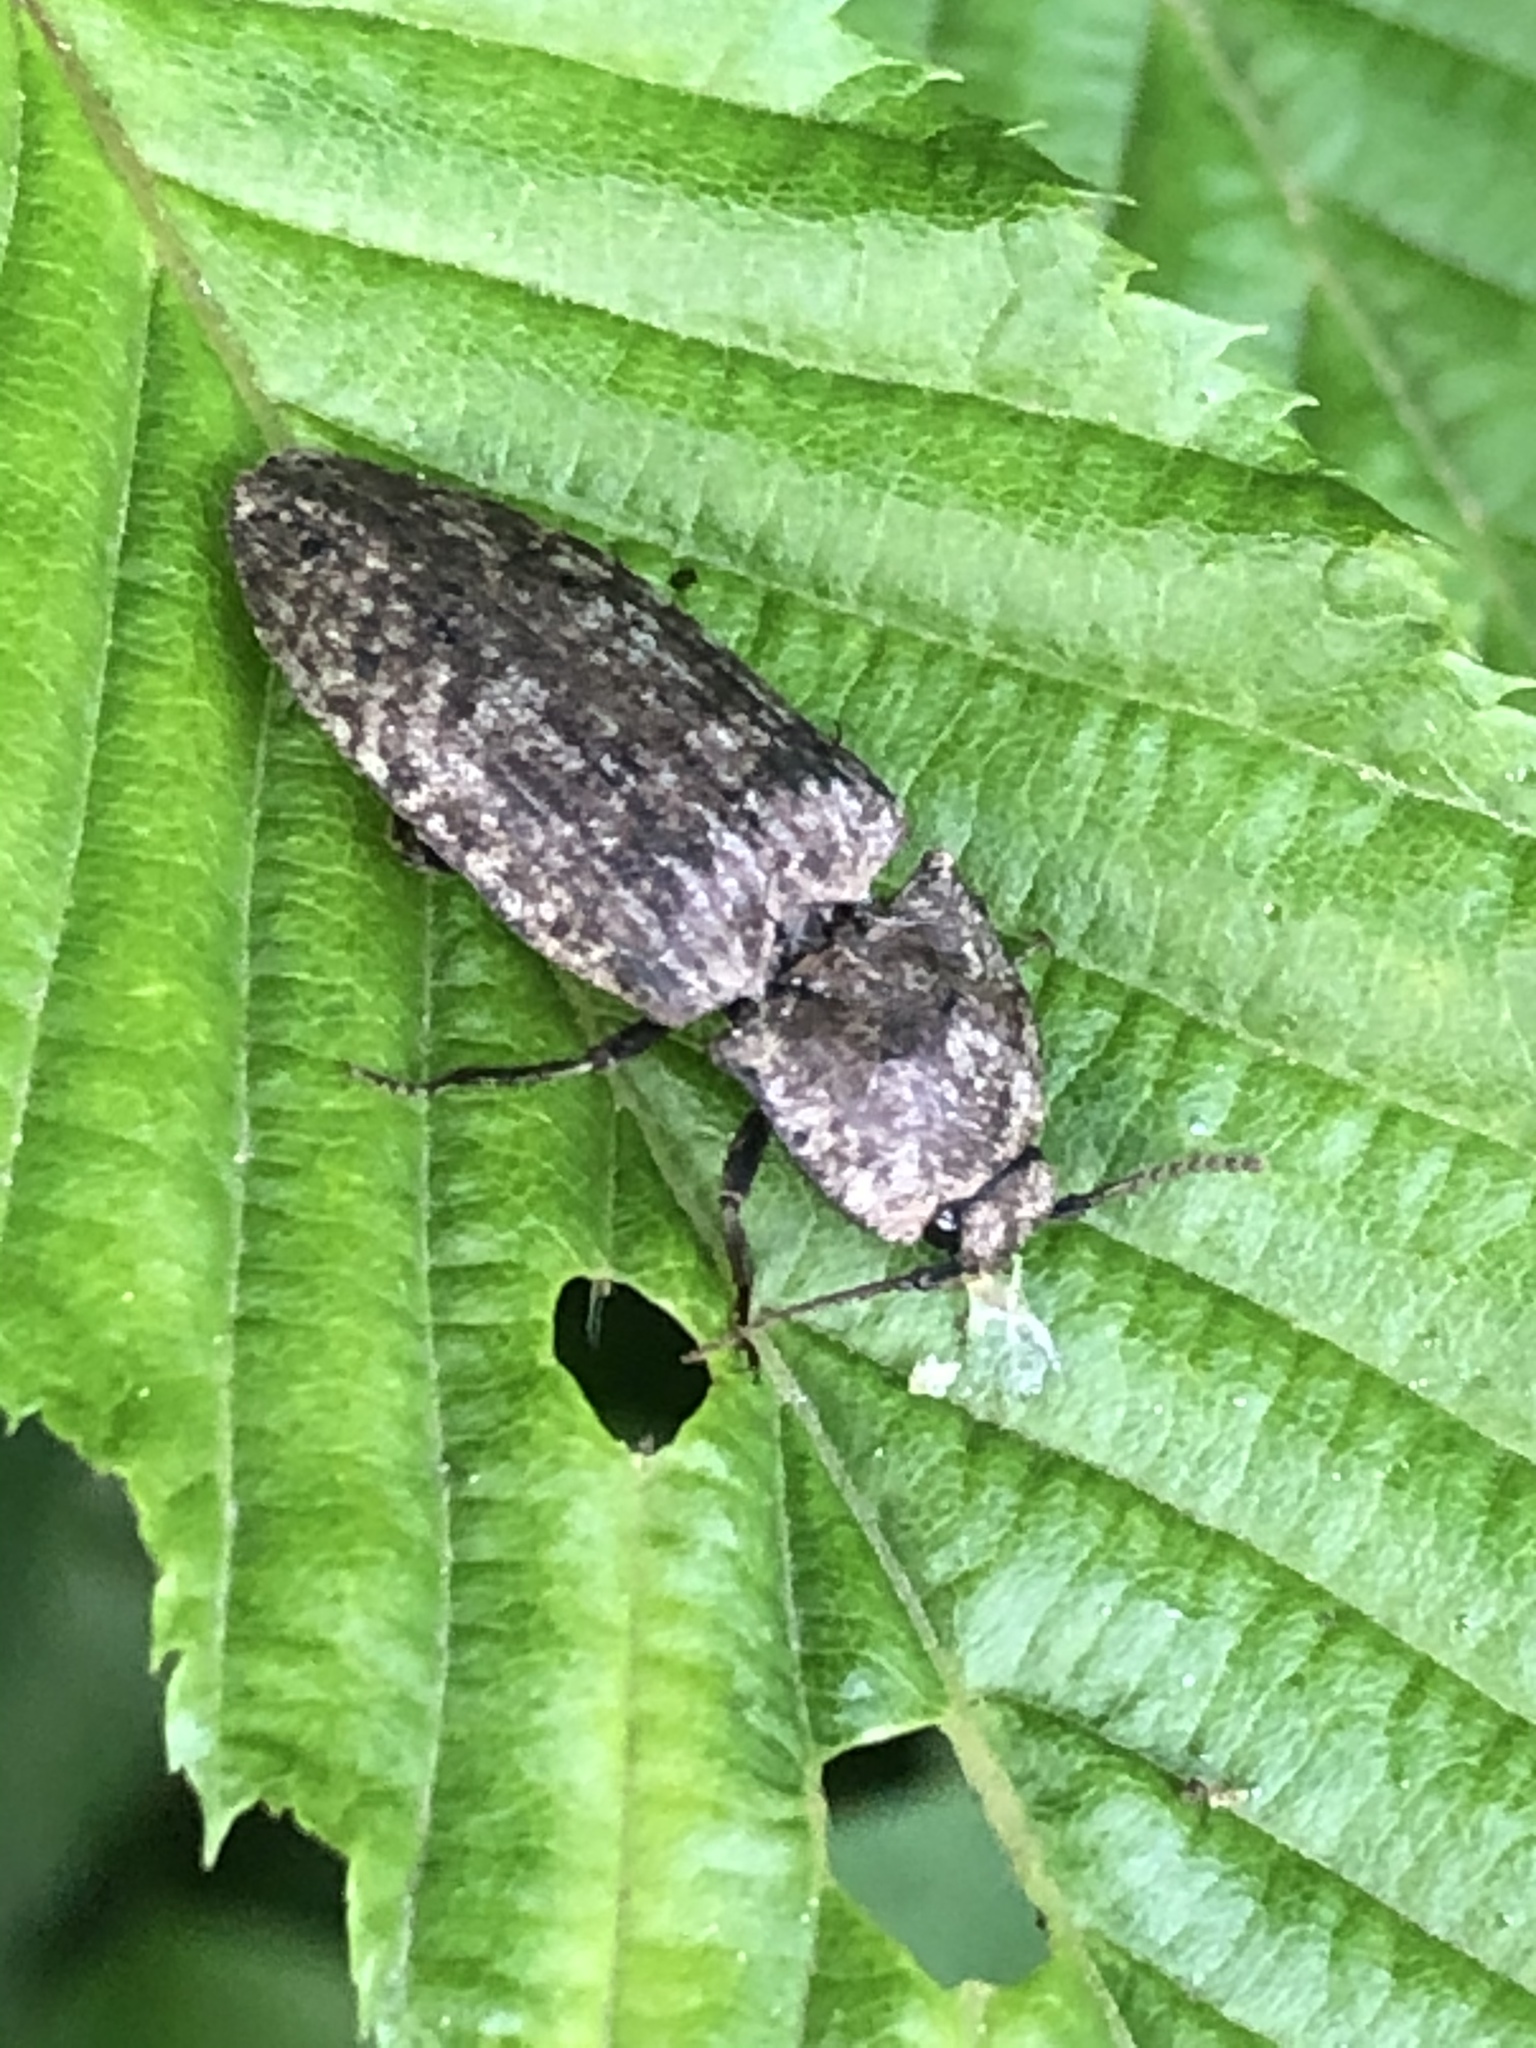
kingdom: Animalia
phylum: Arthropoda
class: Insecta
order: Coleoptera
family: Elateridae
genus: Agrypnus
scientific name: Agrypnus murinus
